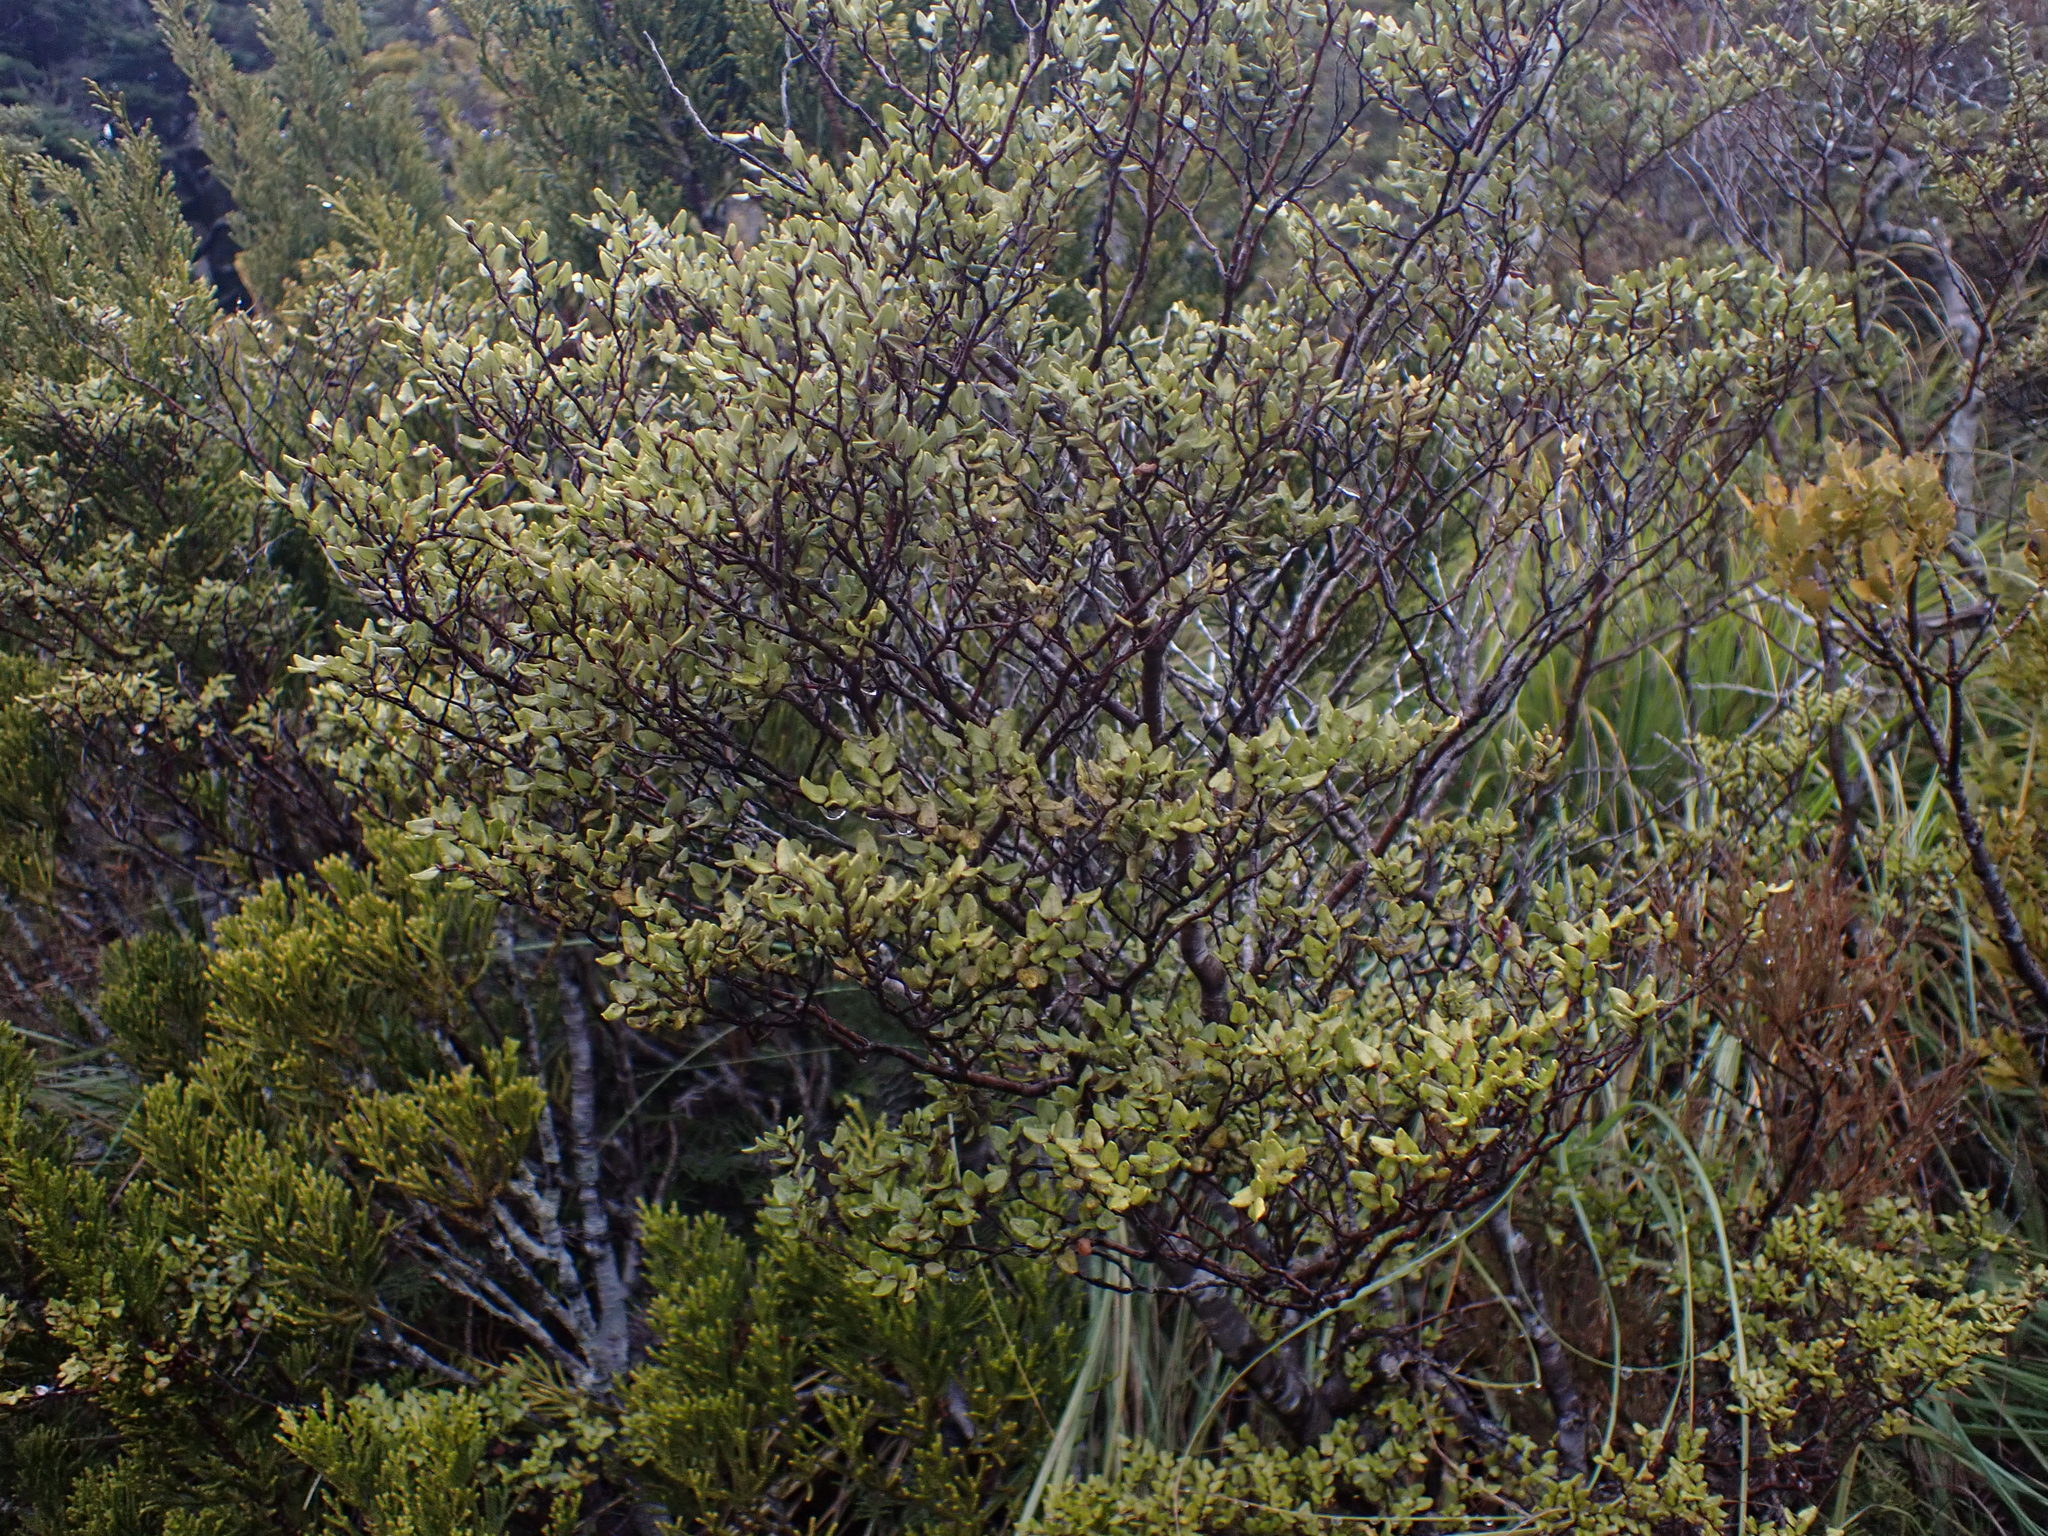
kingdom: Plantae
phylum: Tracheophyta
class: Magnoliopsida
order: Fagales
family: Nothofagaceae
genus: Nothofagus
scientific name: Nothofagus cliffortioides
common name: Mountain beech
